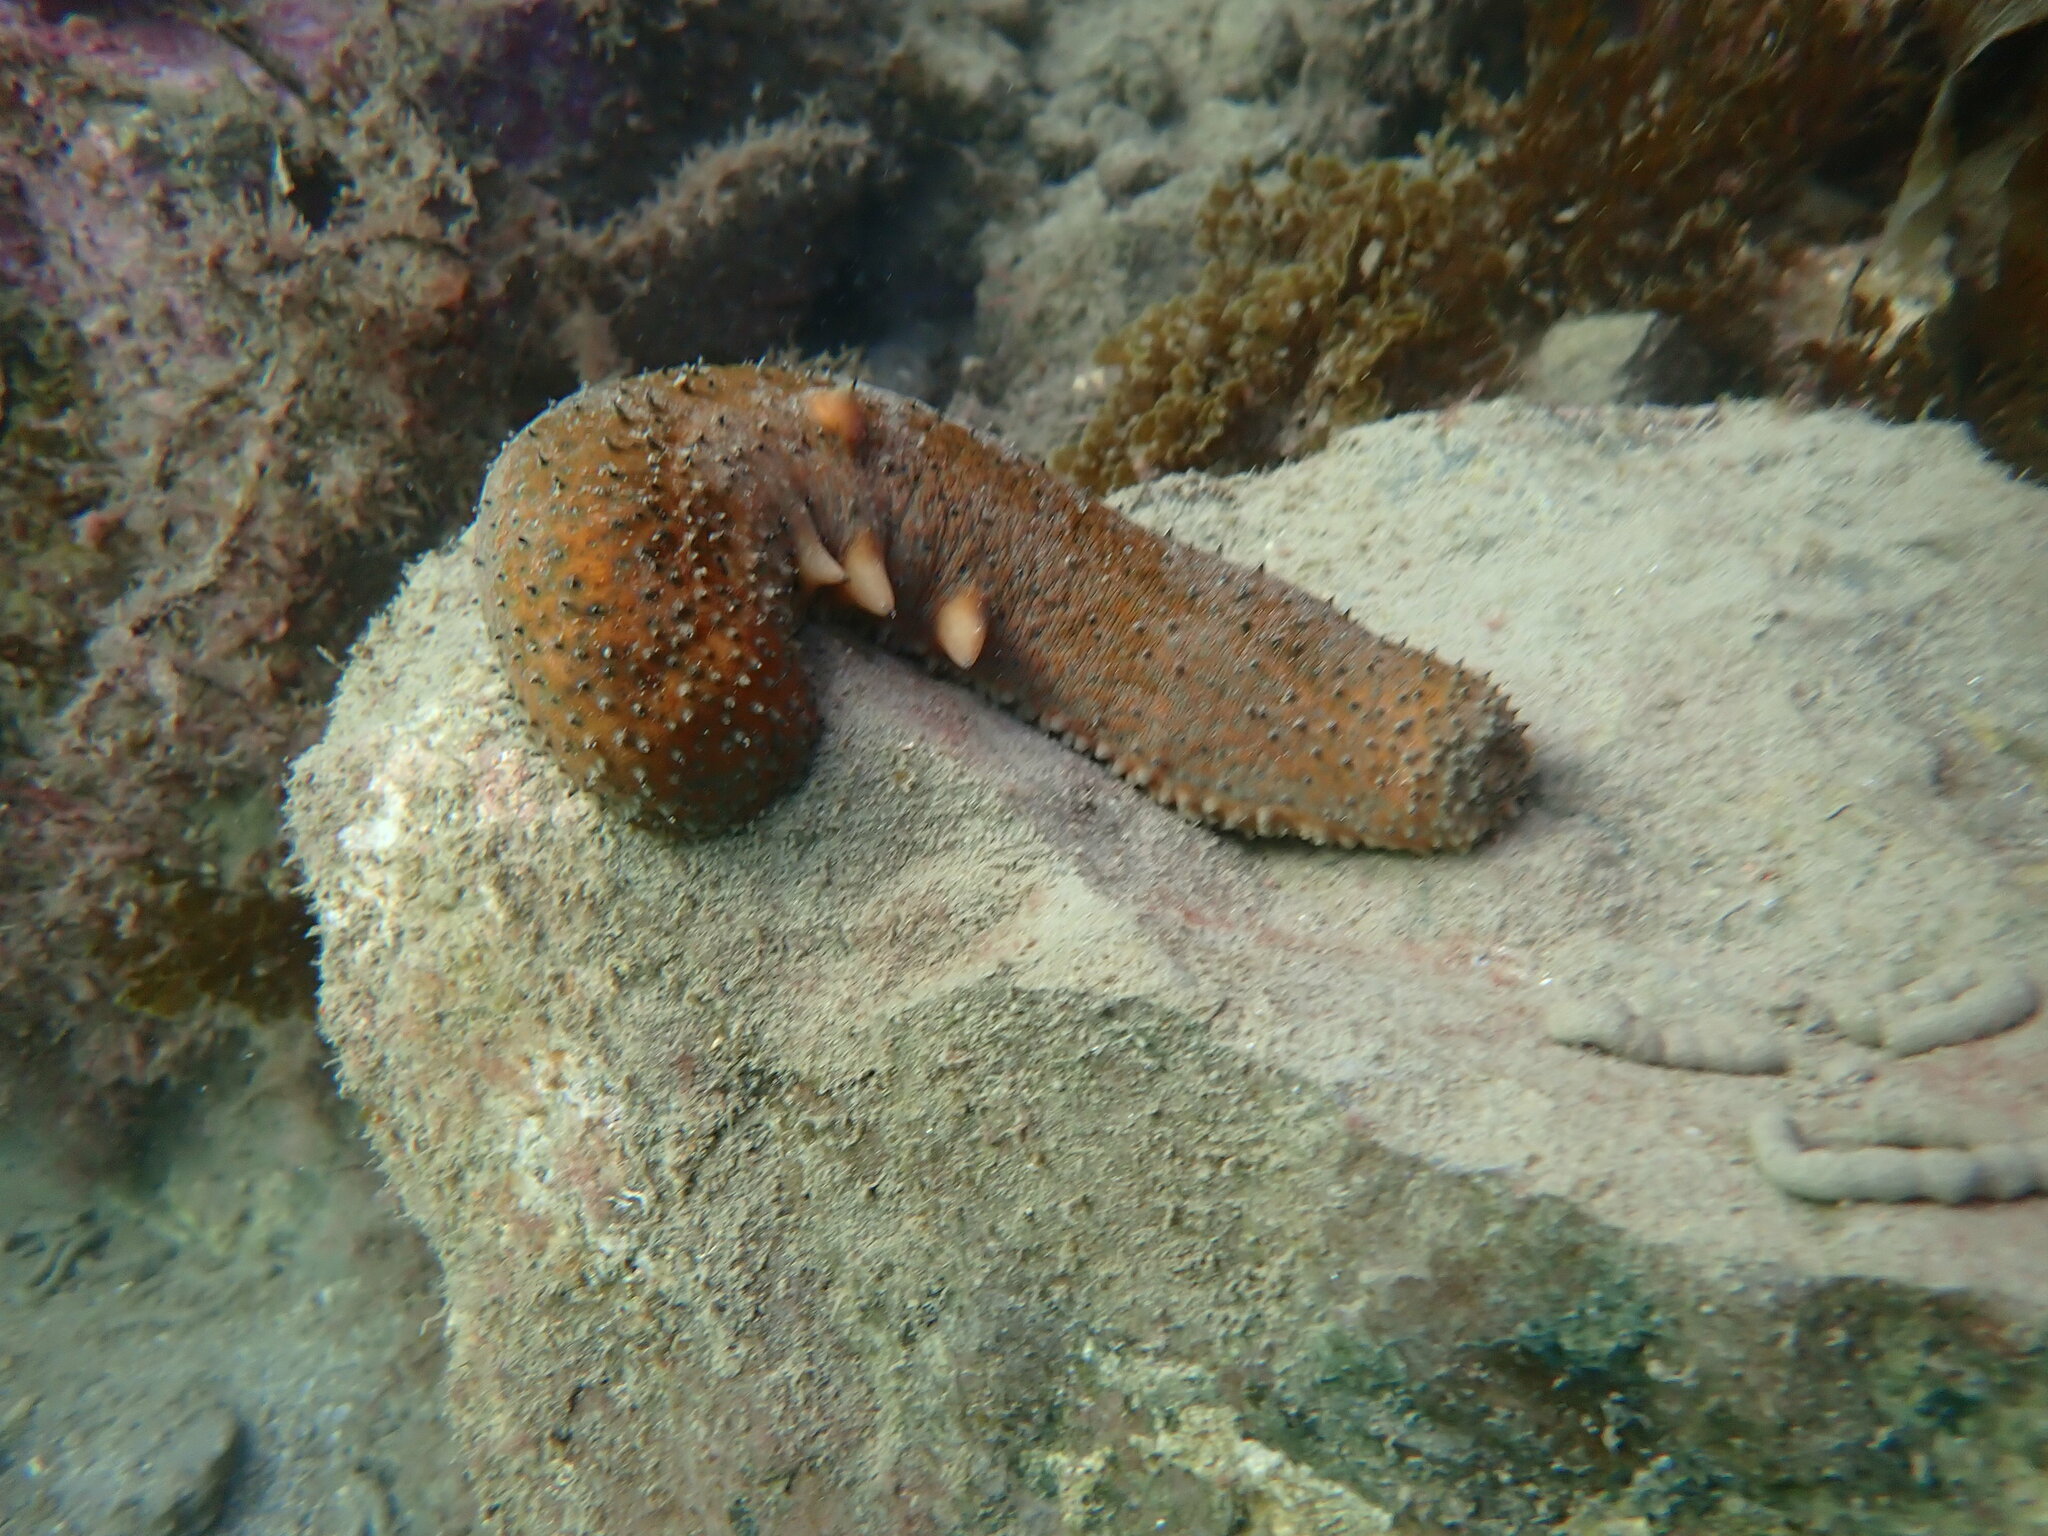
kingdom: Animalia
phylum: Echinodermata
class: Holothuroidea
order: Synallactida
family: Stichopodidae
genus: Apostichopus
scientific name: Apostichopus parvimensis
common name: Warty sea cucumber
